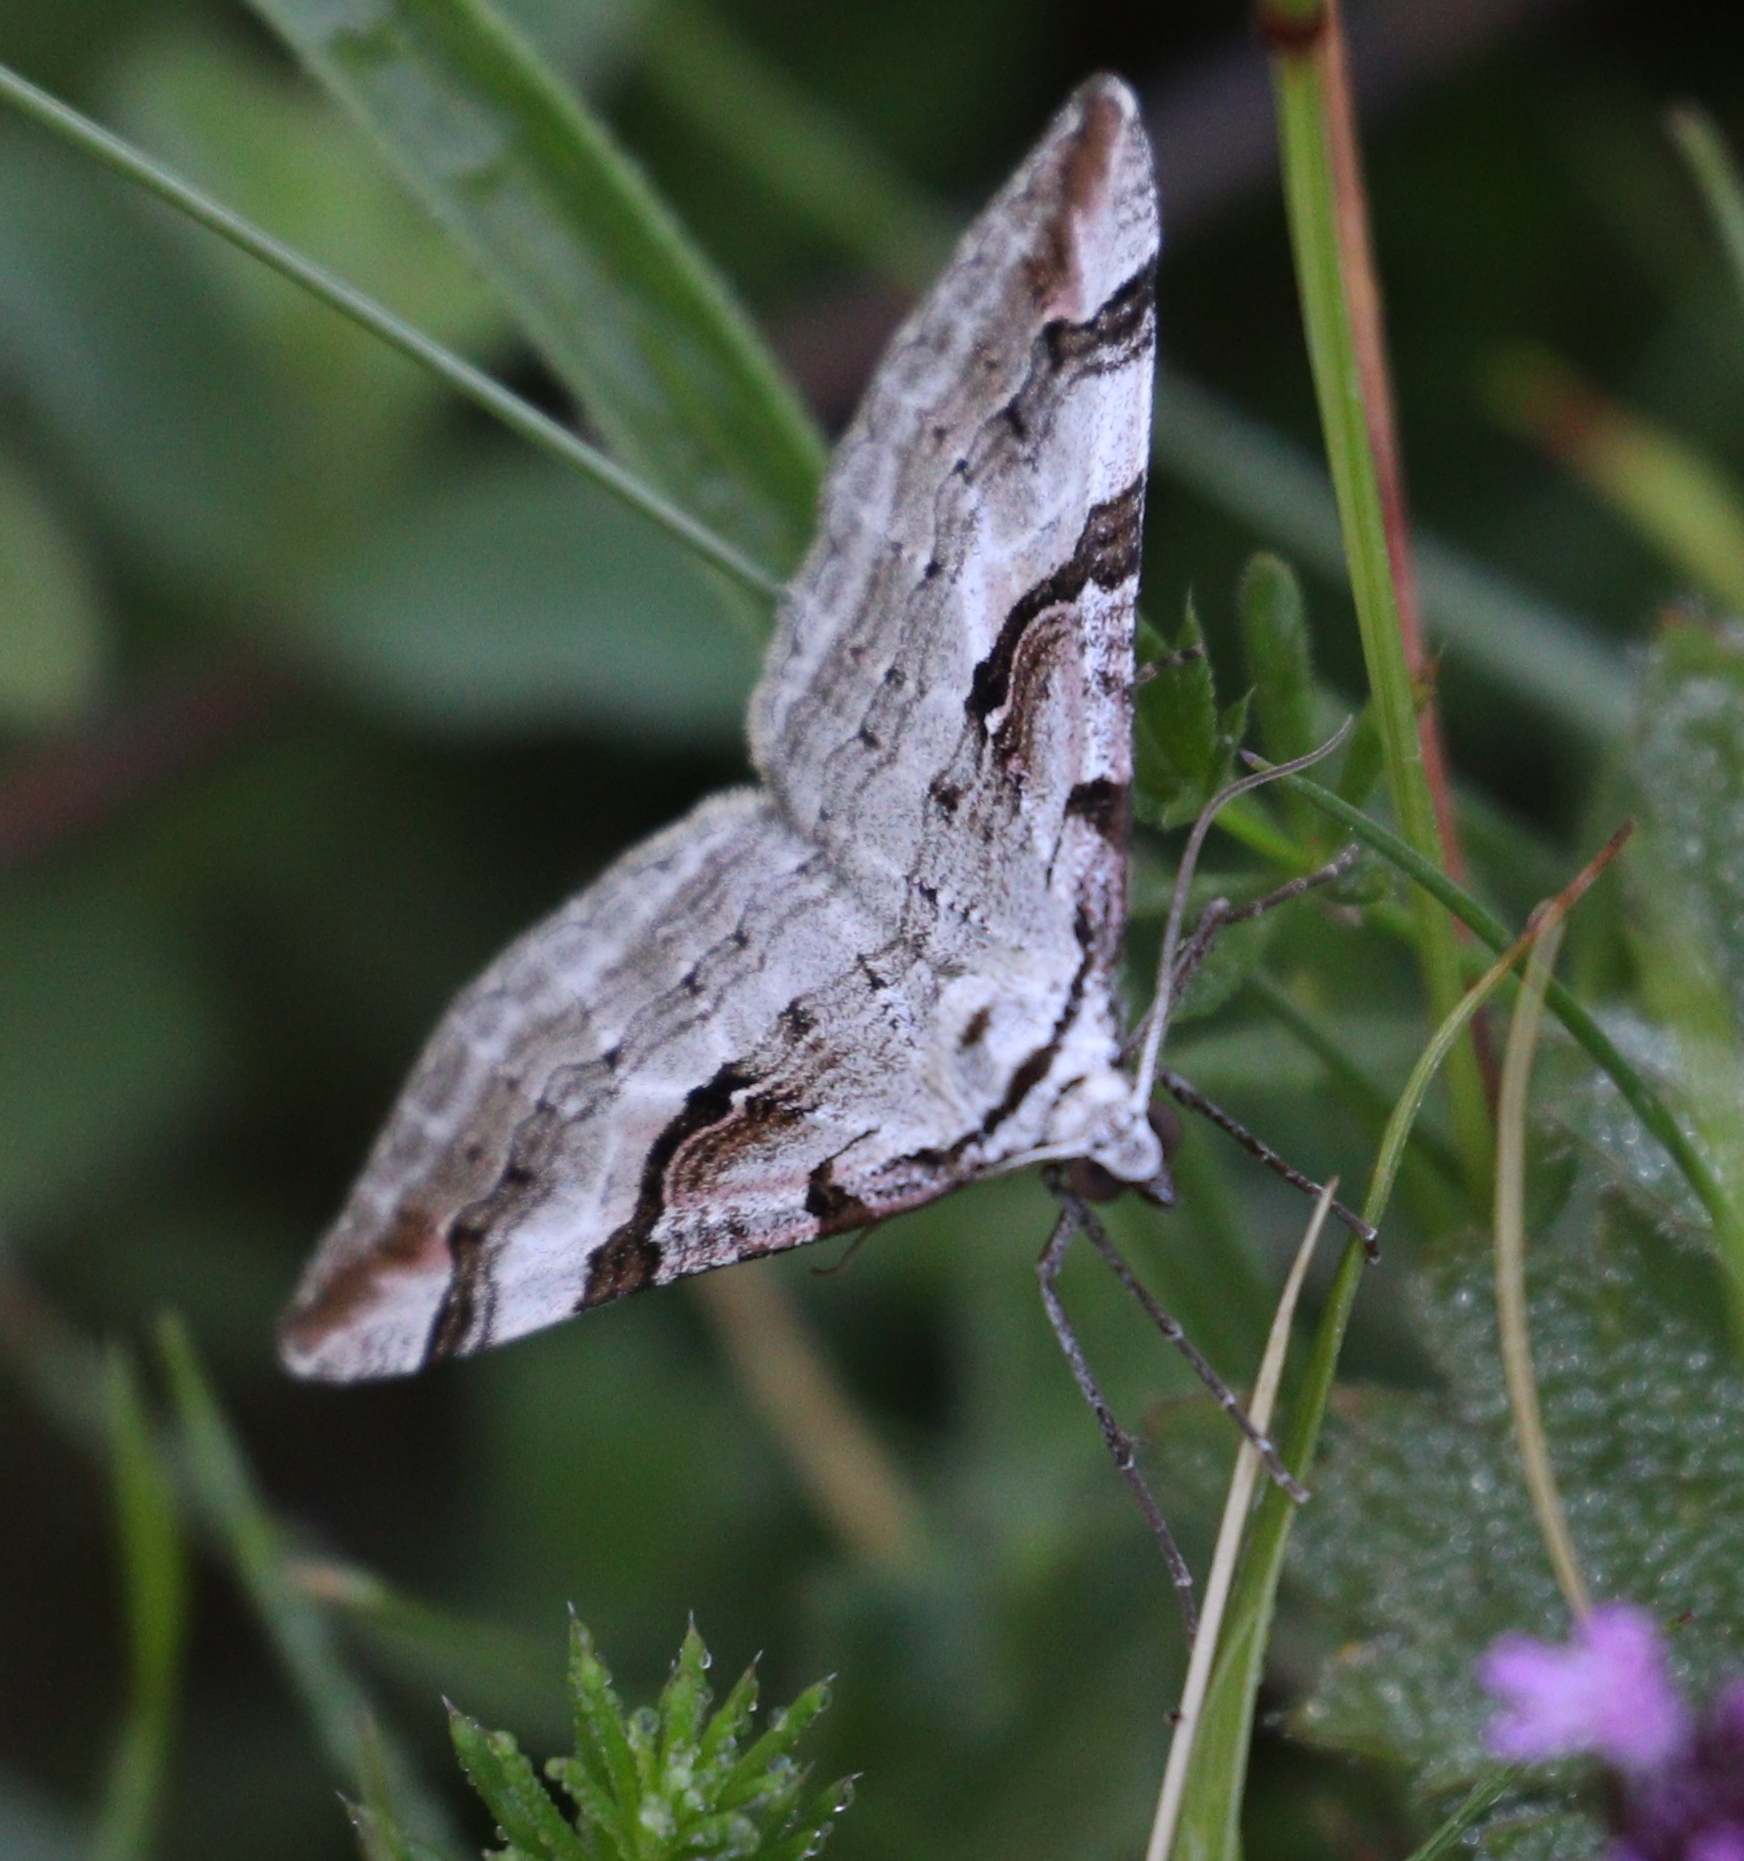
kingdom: Animalia
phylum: Arthropoda
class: Insecta
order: Lepidoptera
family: Geometridae
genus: Aplocera
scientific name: Aplocera praeformata
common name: Purple treble-bar
